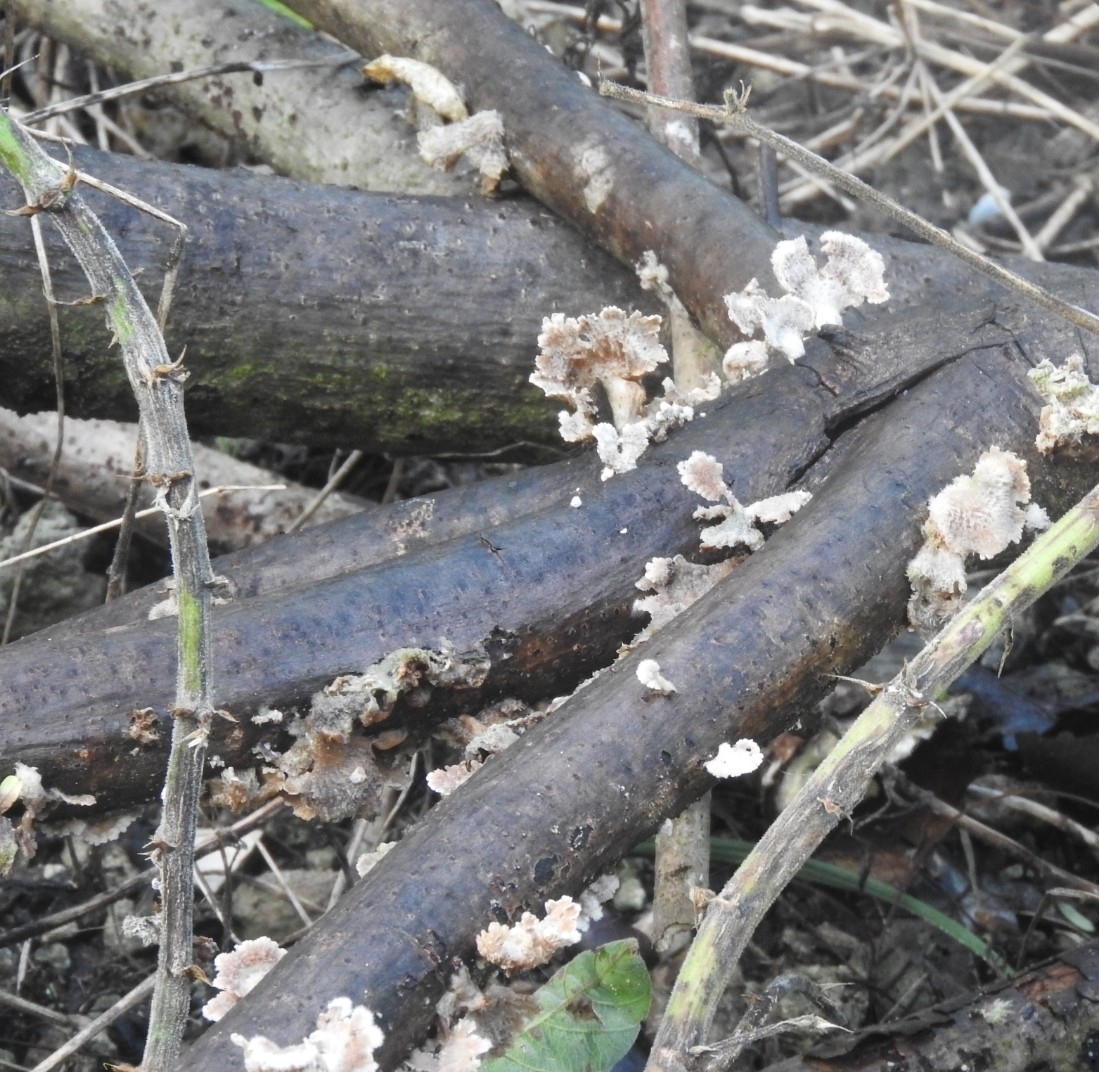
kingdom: Fungi
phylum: Basidiomycota
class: Agaricomycetes
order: Agaricales
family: Schizophyllaceae
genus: Schizophyllum
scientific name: Schizophyllum commune
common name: Common porecrust
